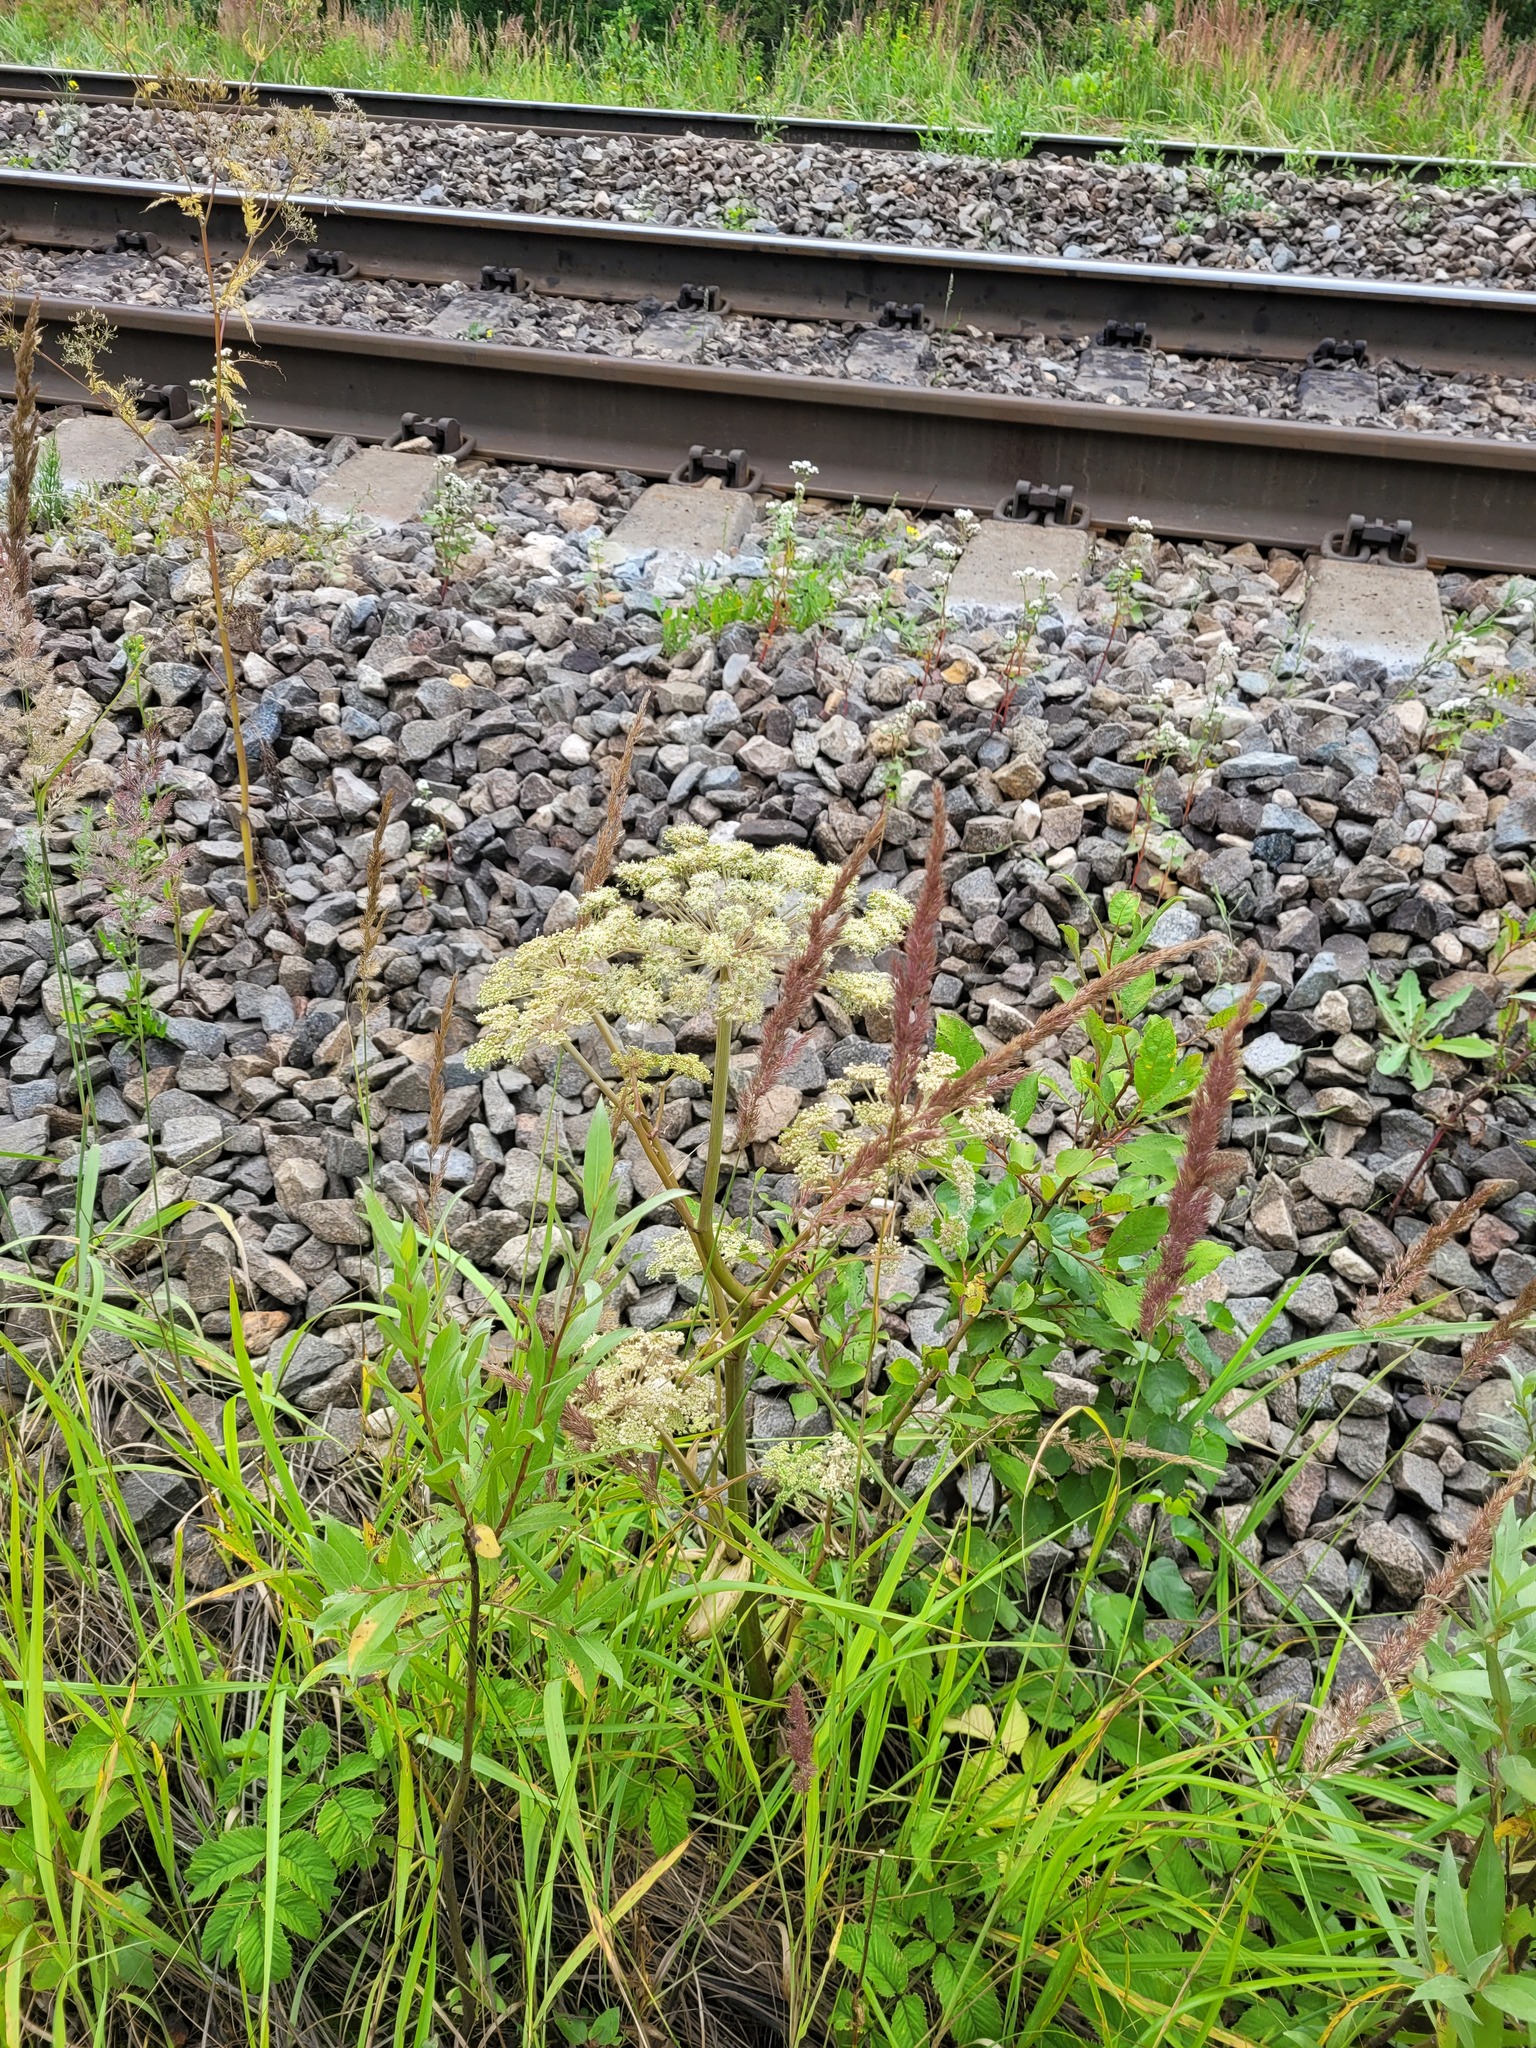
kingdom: Plantae
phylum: Tracheophyta
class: Magnoliopsida
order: Apiales
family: Apiaceae
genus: Angelica
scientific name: Angelica sylvestris
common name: Wild angelica
